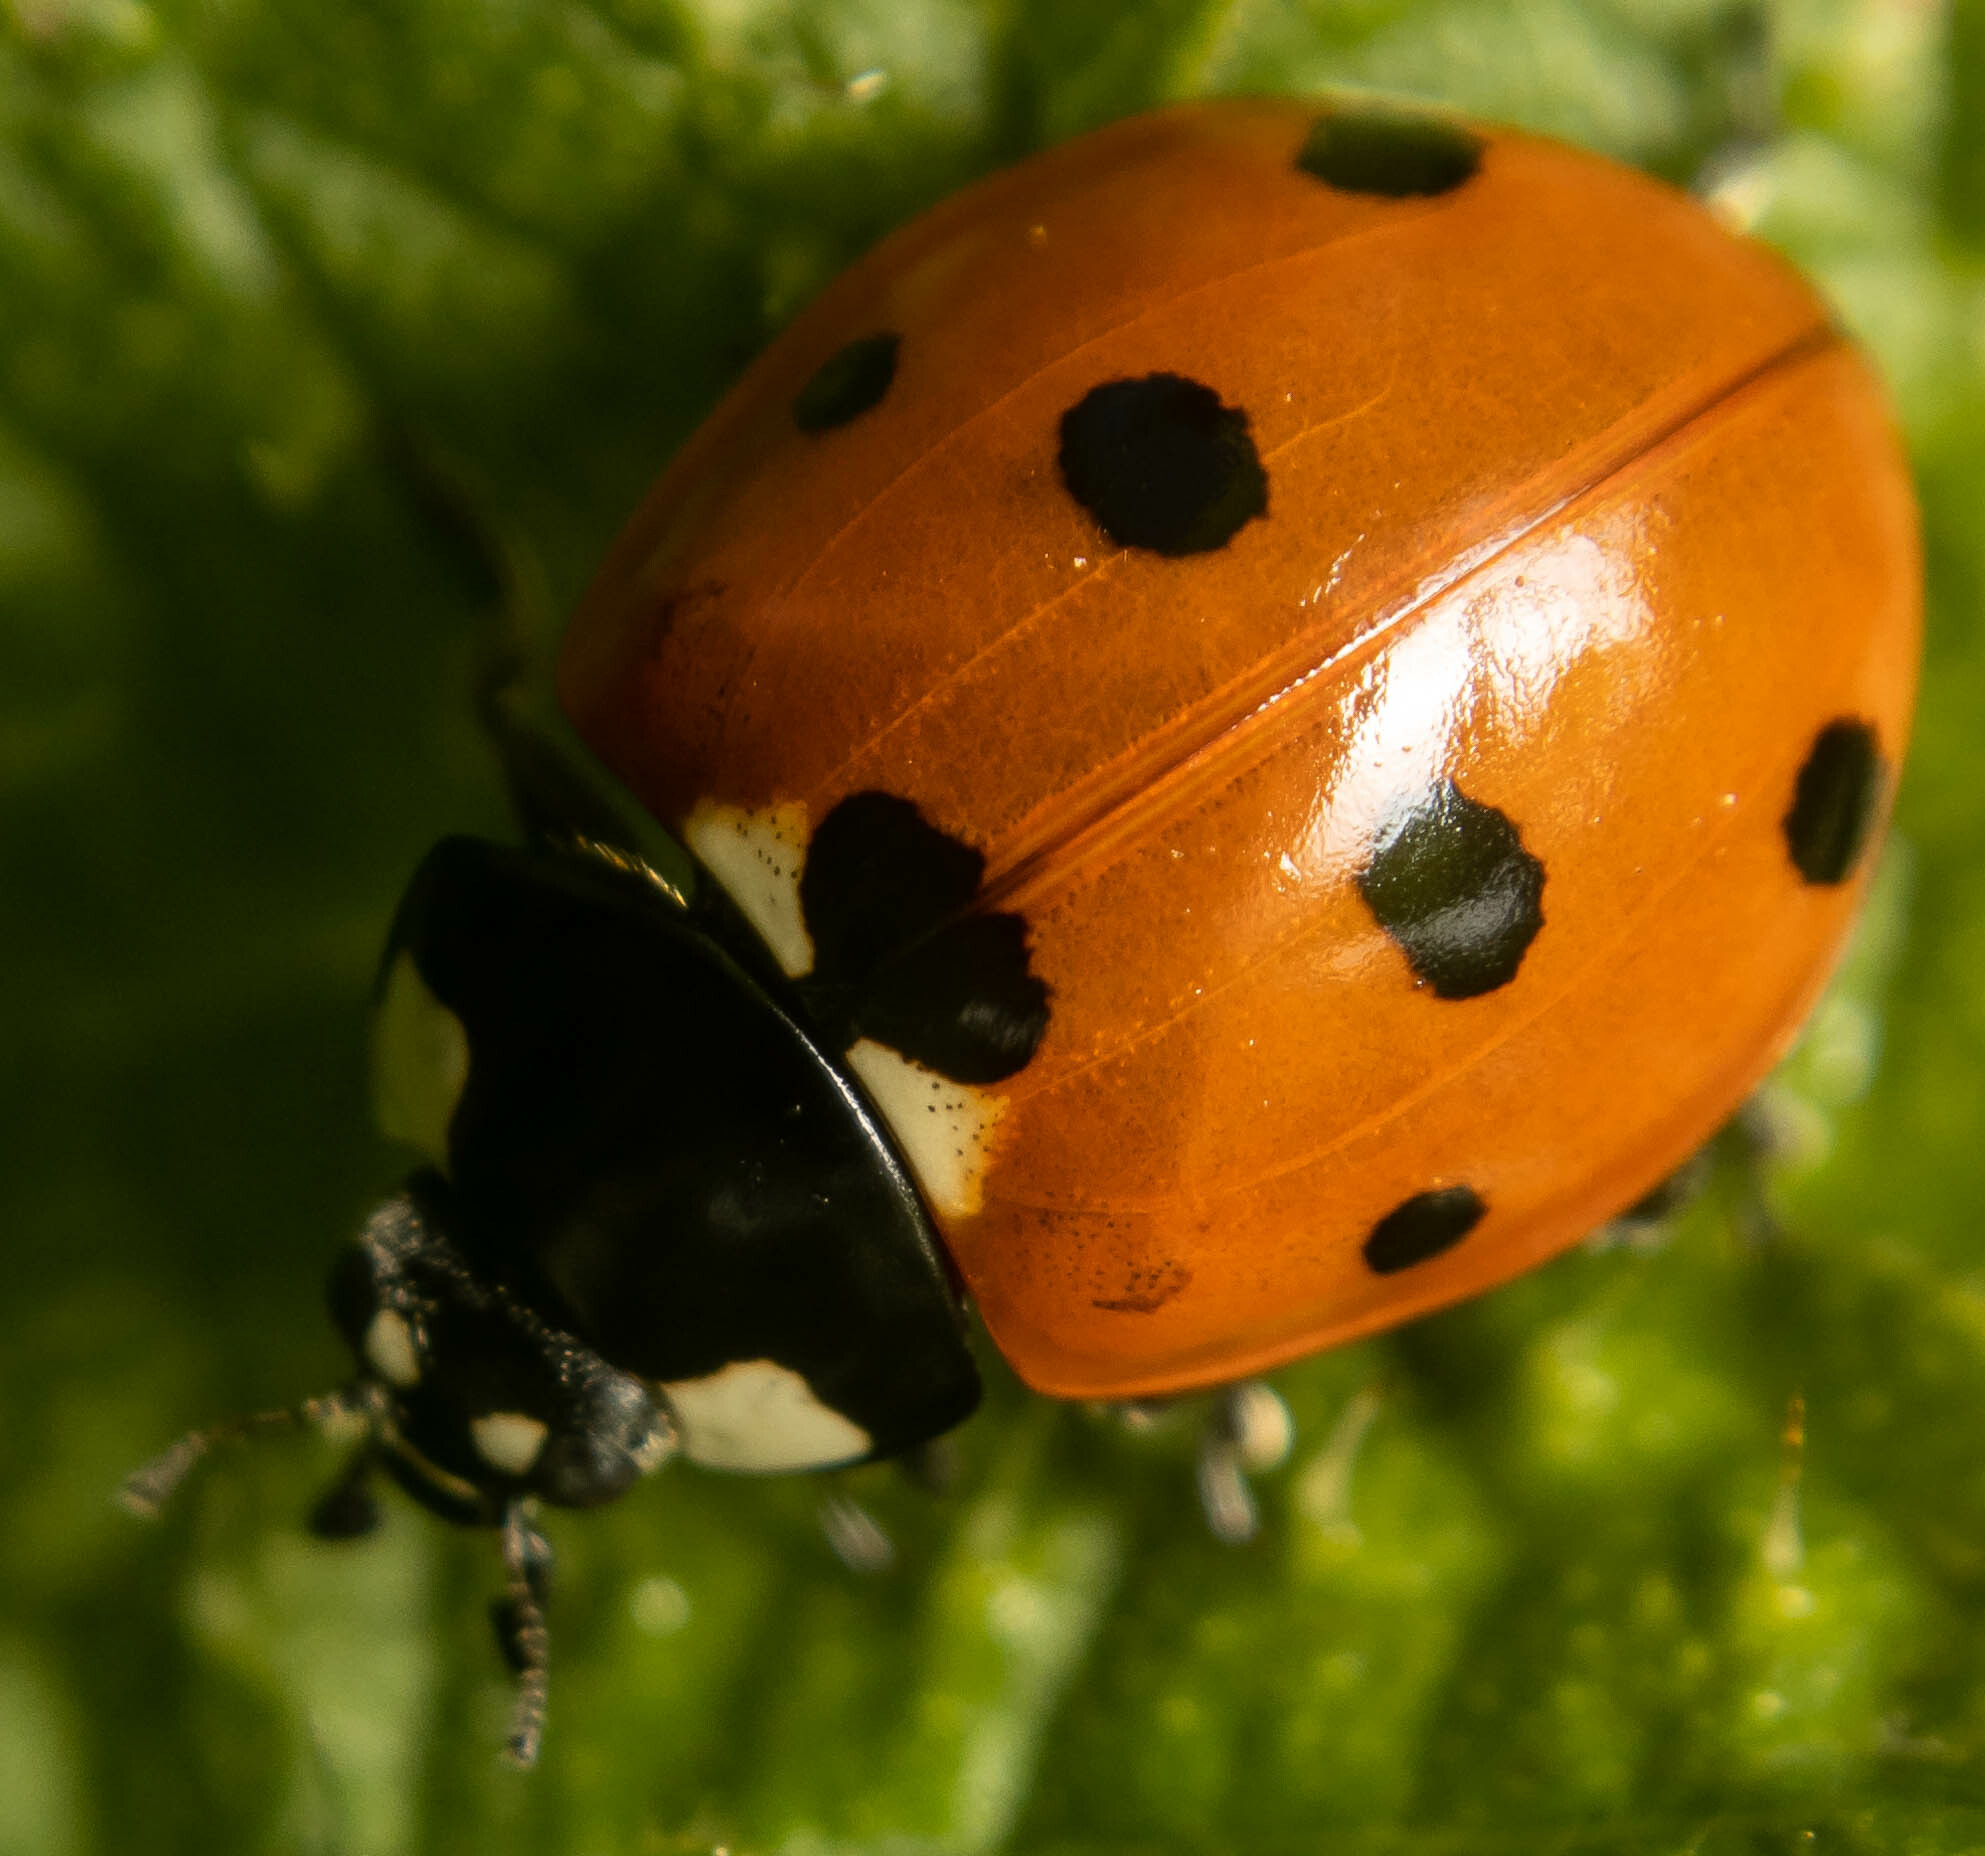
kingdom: Animalia
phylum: Arthropoda
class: Insecta
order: Coleoptera
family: Coccinellidae
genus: Coccinella
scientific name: Coccinella septempunctata
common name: Sevenspotted lady beetle
